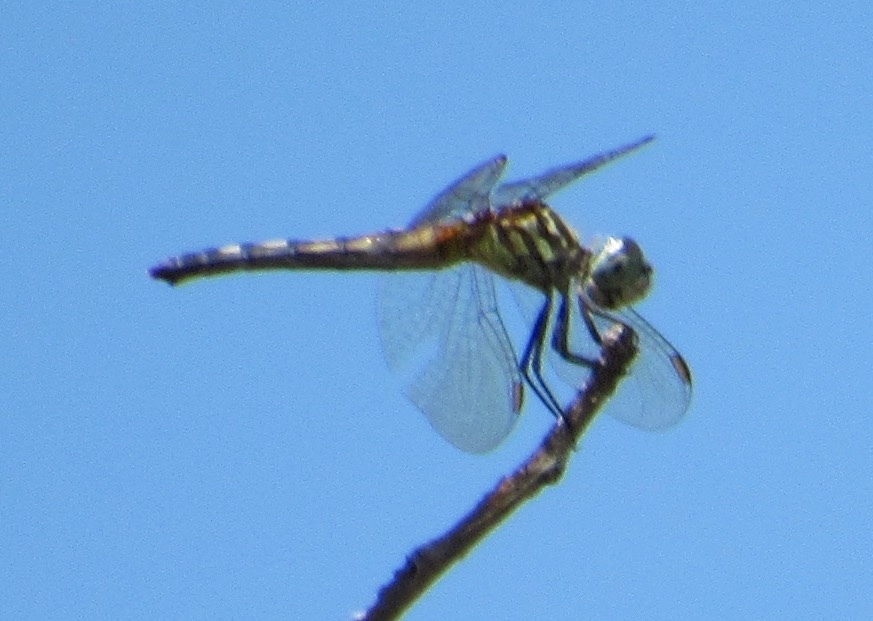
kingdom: Animalia
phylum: Arthropoda
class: Insecta
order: Odonata
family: Libellulidae
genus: Pachydiplax
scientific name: Pachydiplax longipennis
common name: Blue dasher
